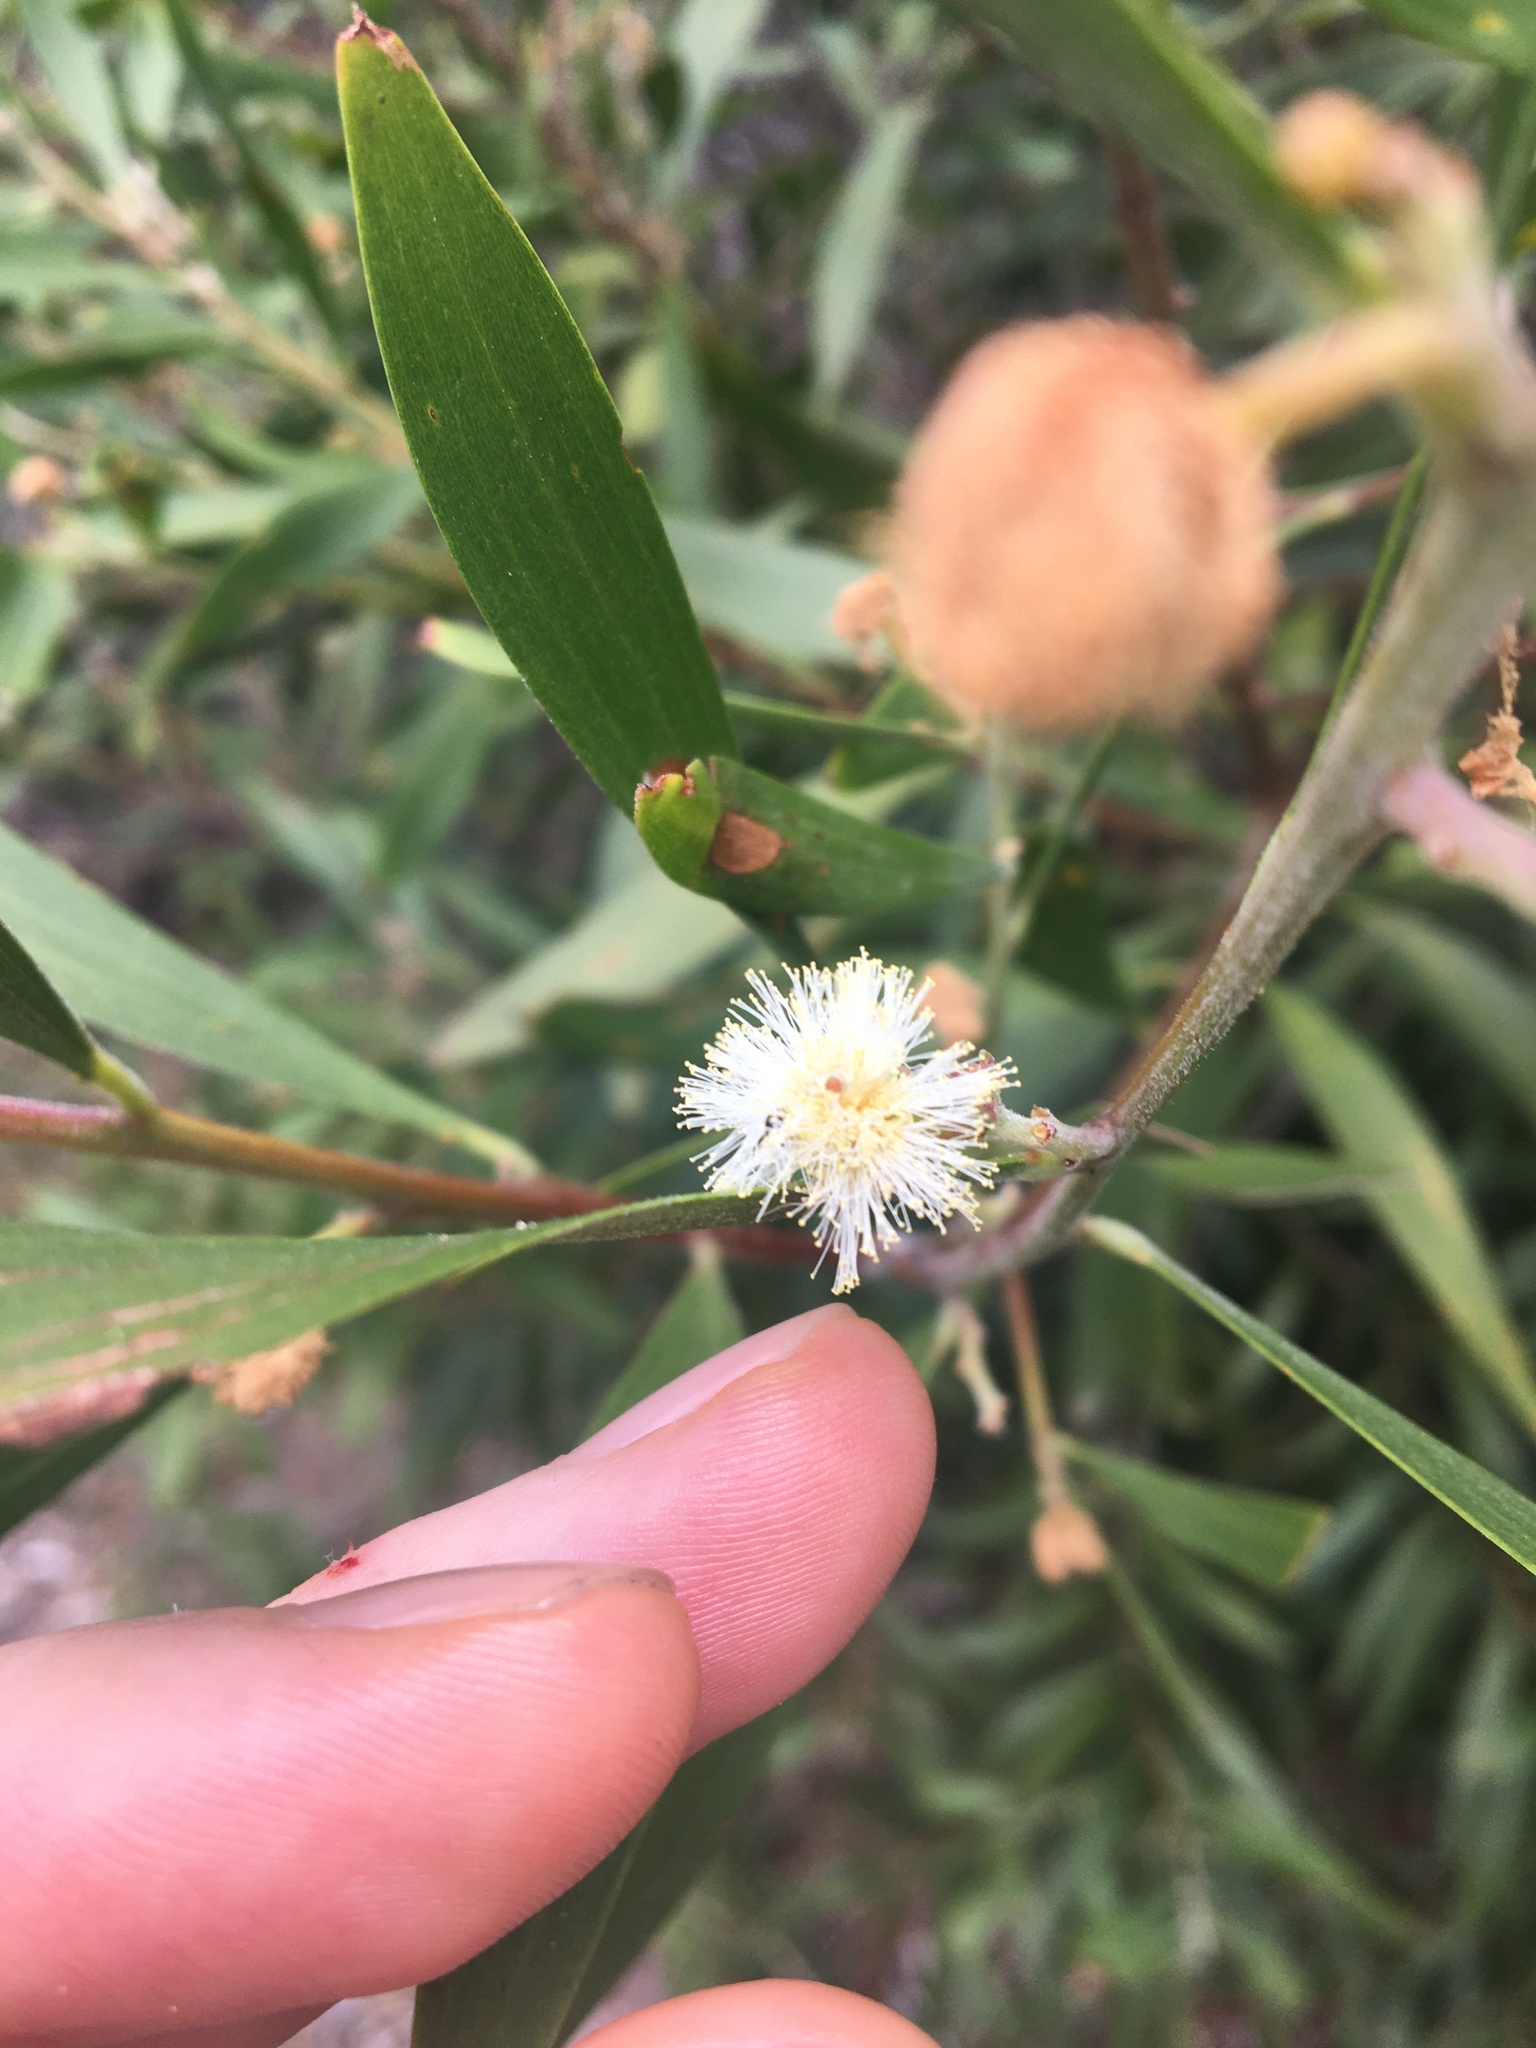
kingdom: Plantae
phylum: Tracheophyta
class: Magnoliopsida
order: Fabales
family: Fabaceae
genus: Acacia
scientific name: Acacia melanoxylon
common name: Blackwood
